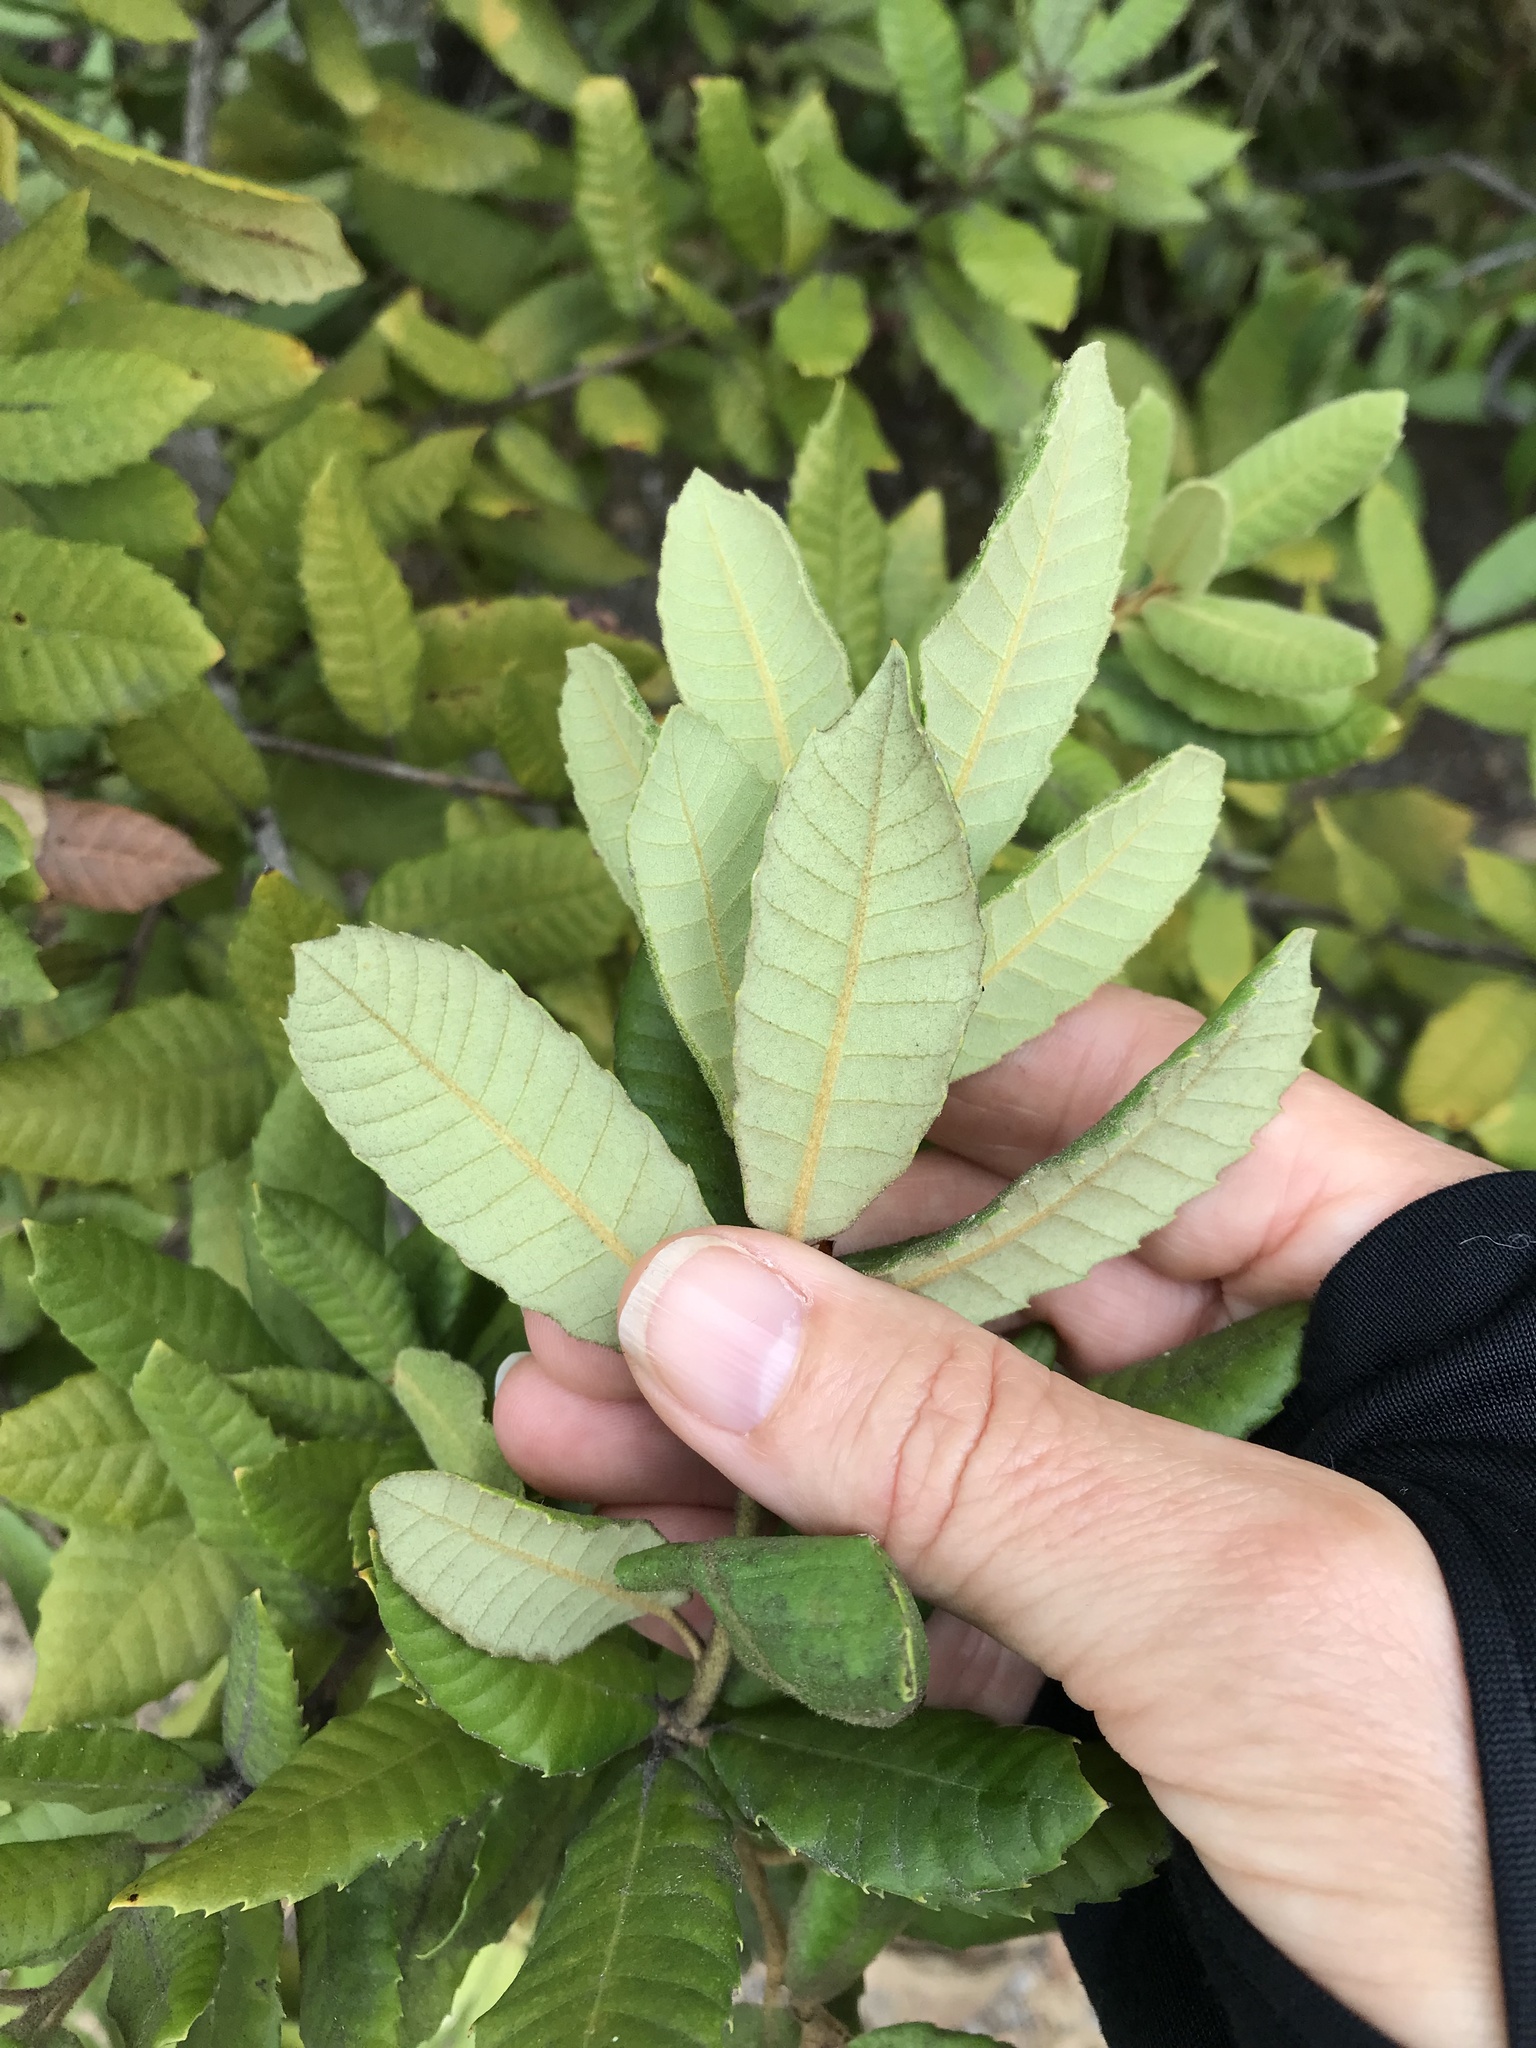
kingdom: Plantae
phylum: Tracheophyta
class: Magnoliopsida
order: Fagales
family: Fagaceae
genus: Notholithocarpus
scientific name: Notholithocarpus densiflorus
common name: Tan bark oak
